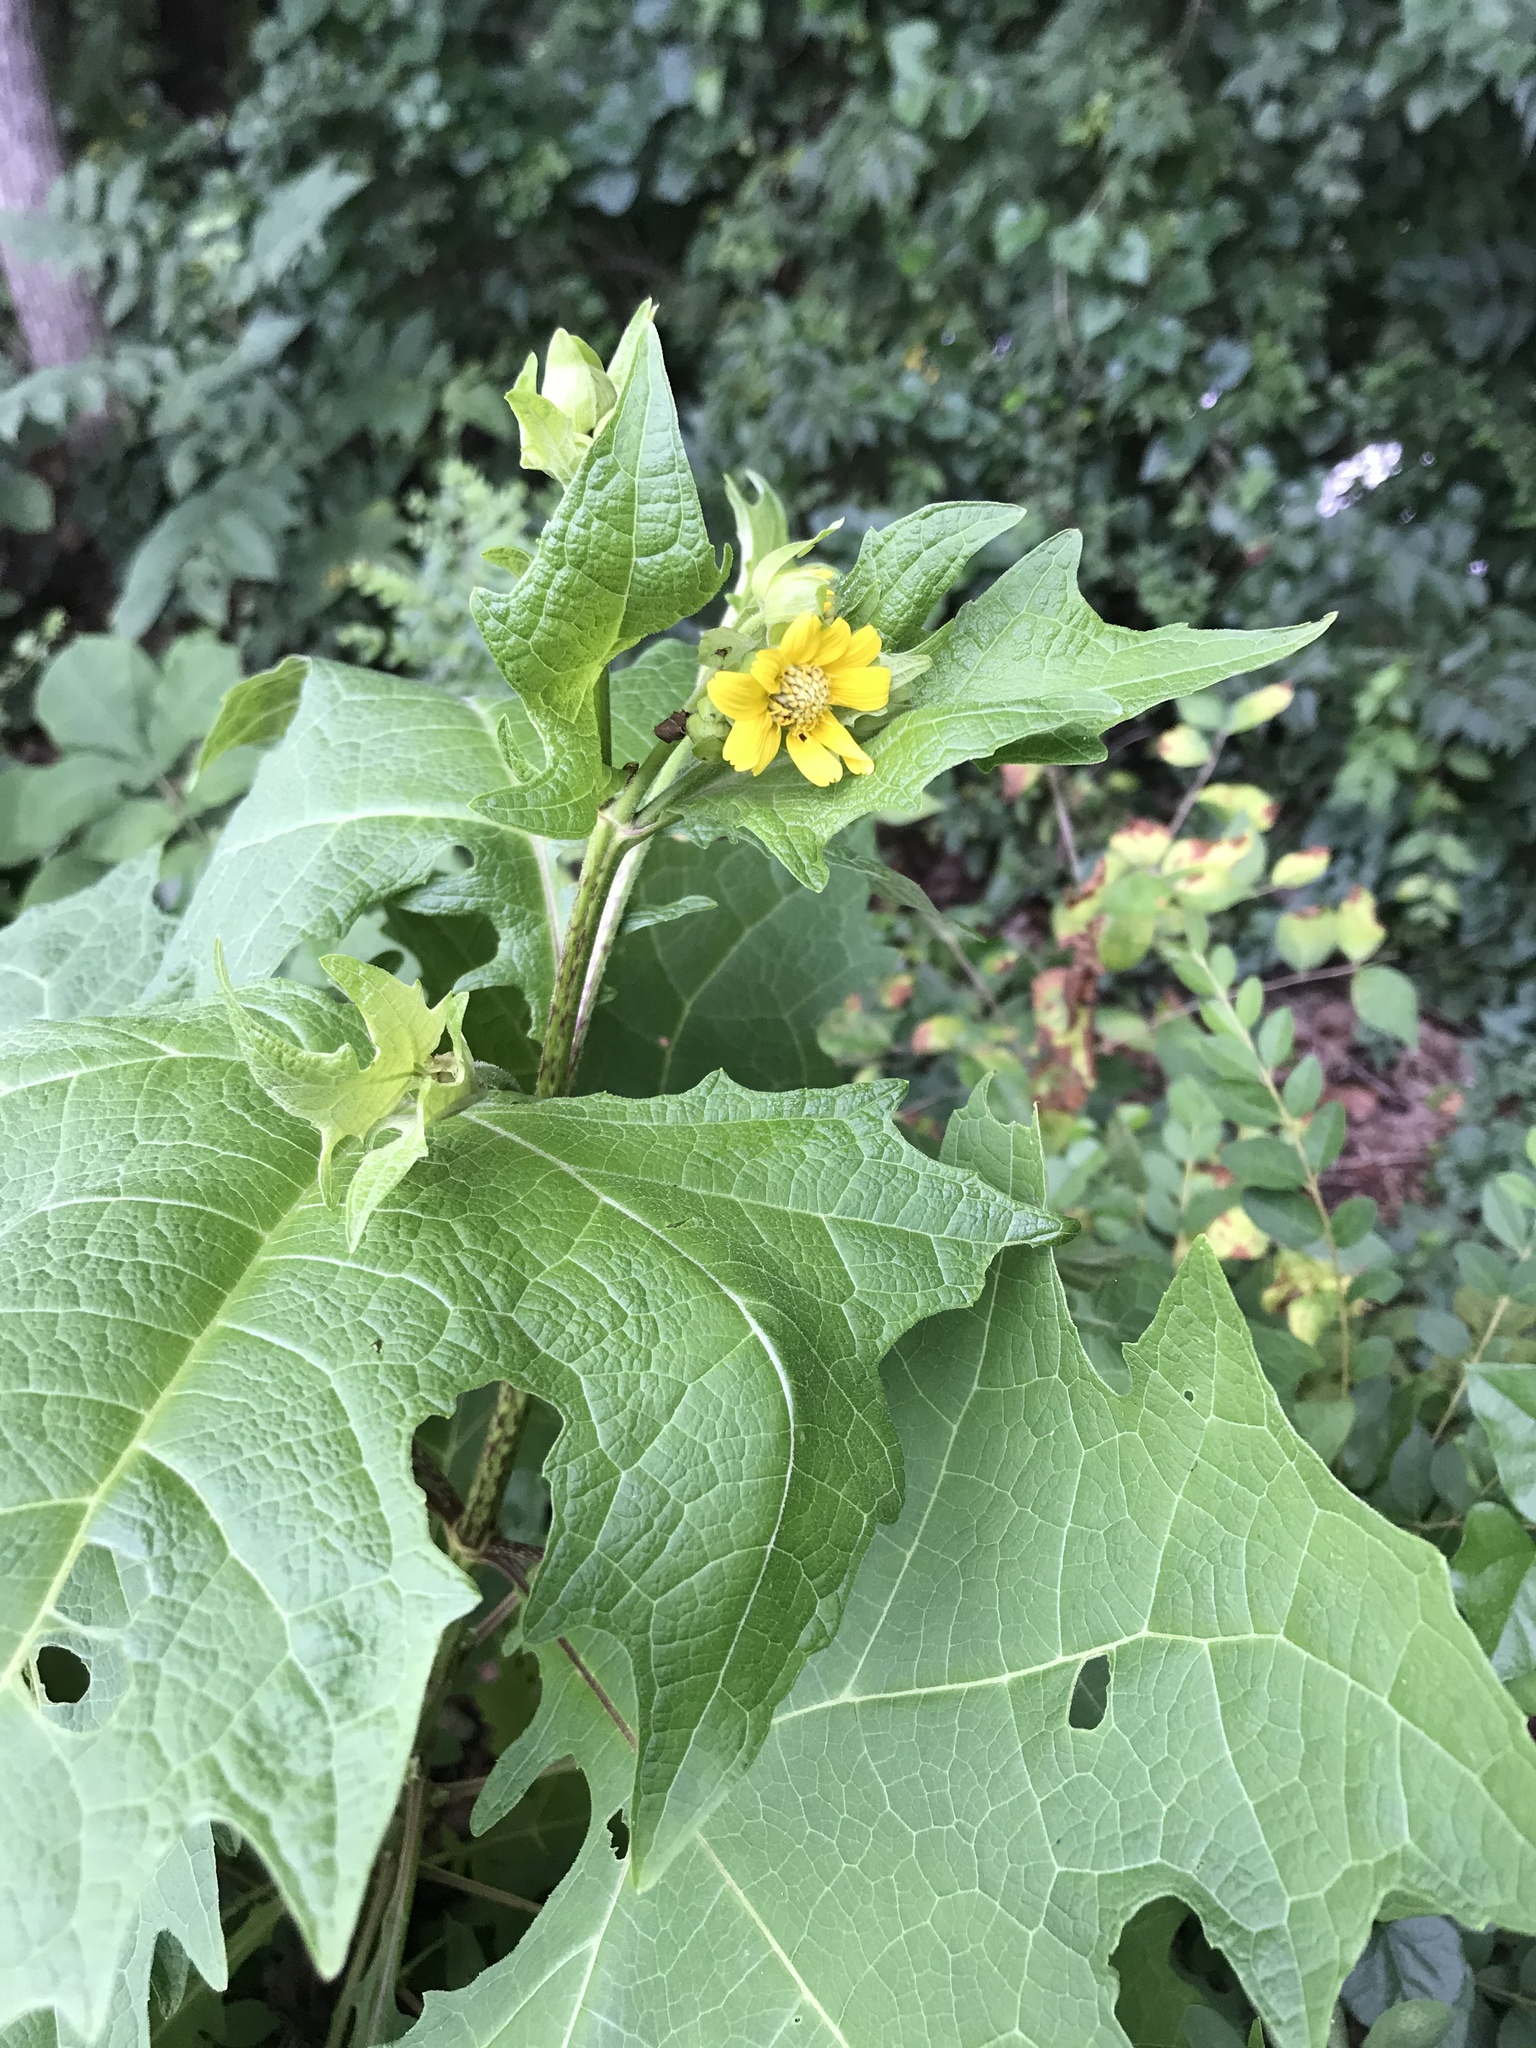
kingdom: Plantae
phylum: Tracheophyta
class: Magnoliopsida
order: Asterales
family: Asteraceae
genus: Smallanthus
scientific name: Smallanthus uvedalia
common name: Bear's-foot
